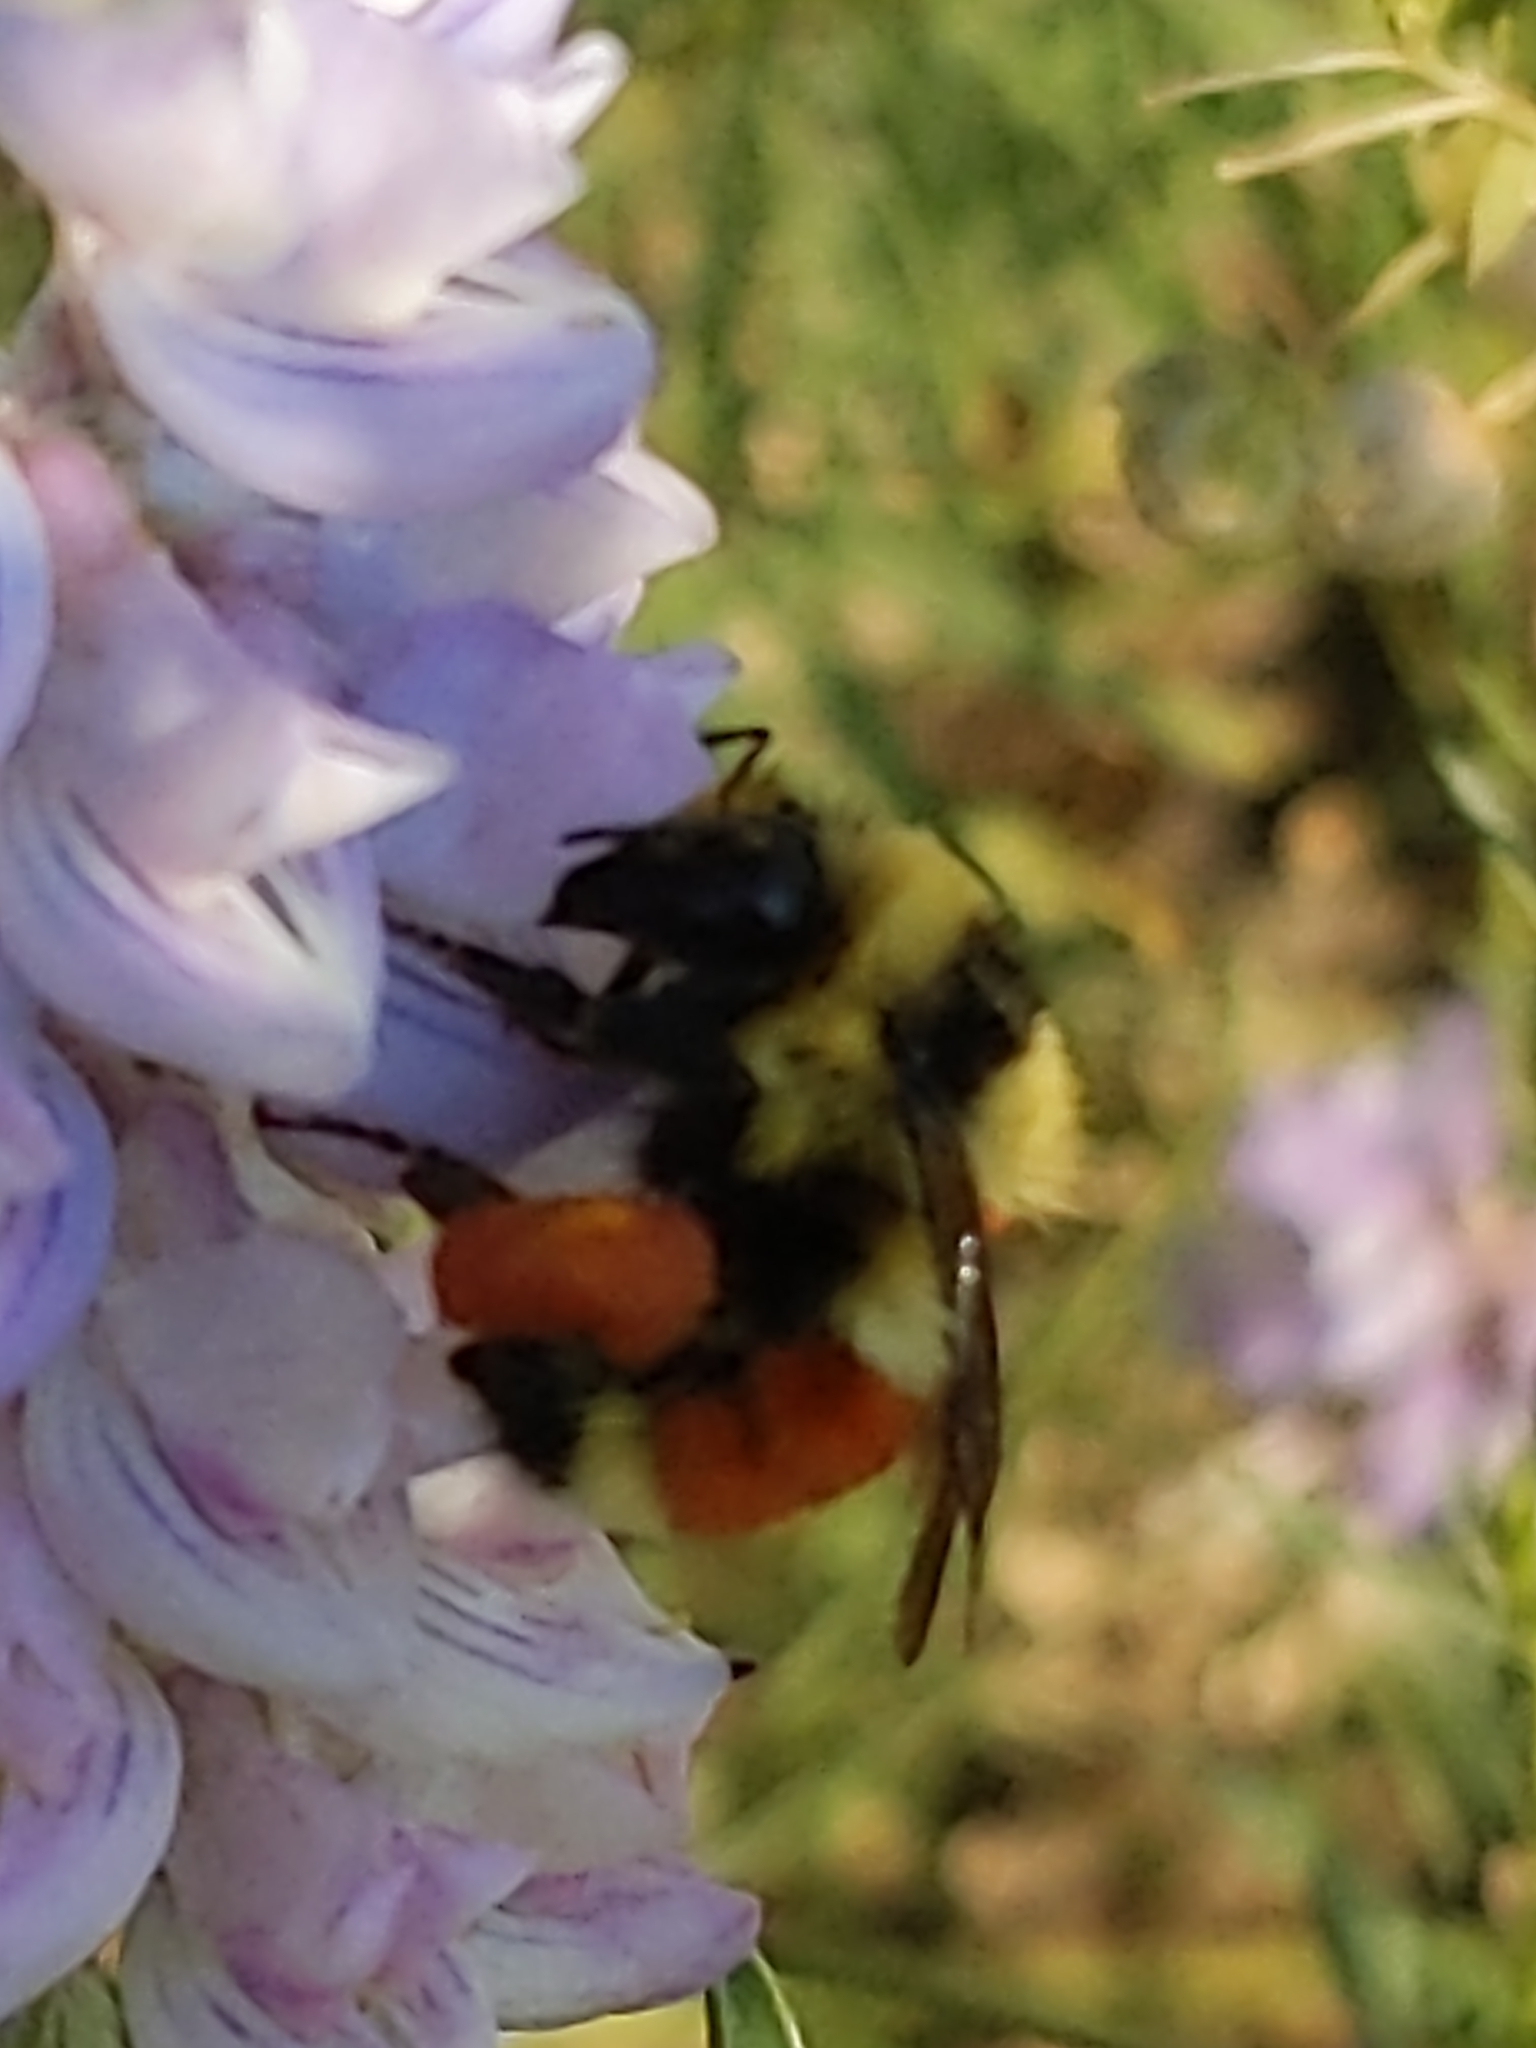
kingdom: Animalia
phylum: Arthropoda
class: Insecta
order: Hymenoptera
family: Apidae
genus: Bombus
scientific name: Bombus huntii
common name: Hunt bumble bee
